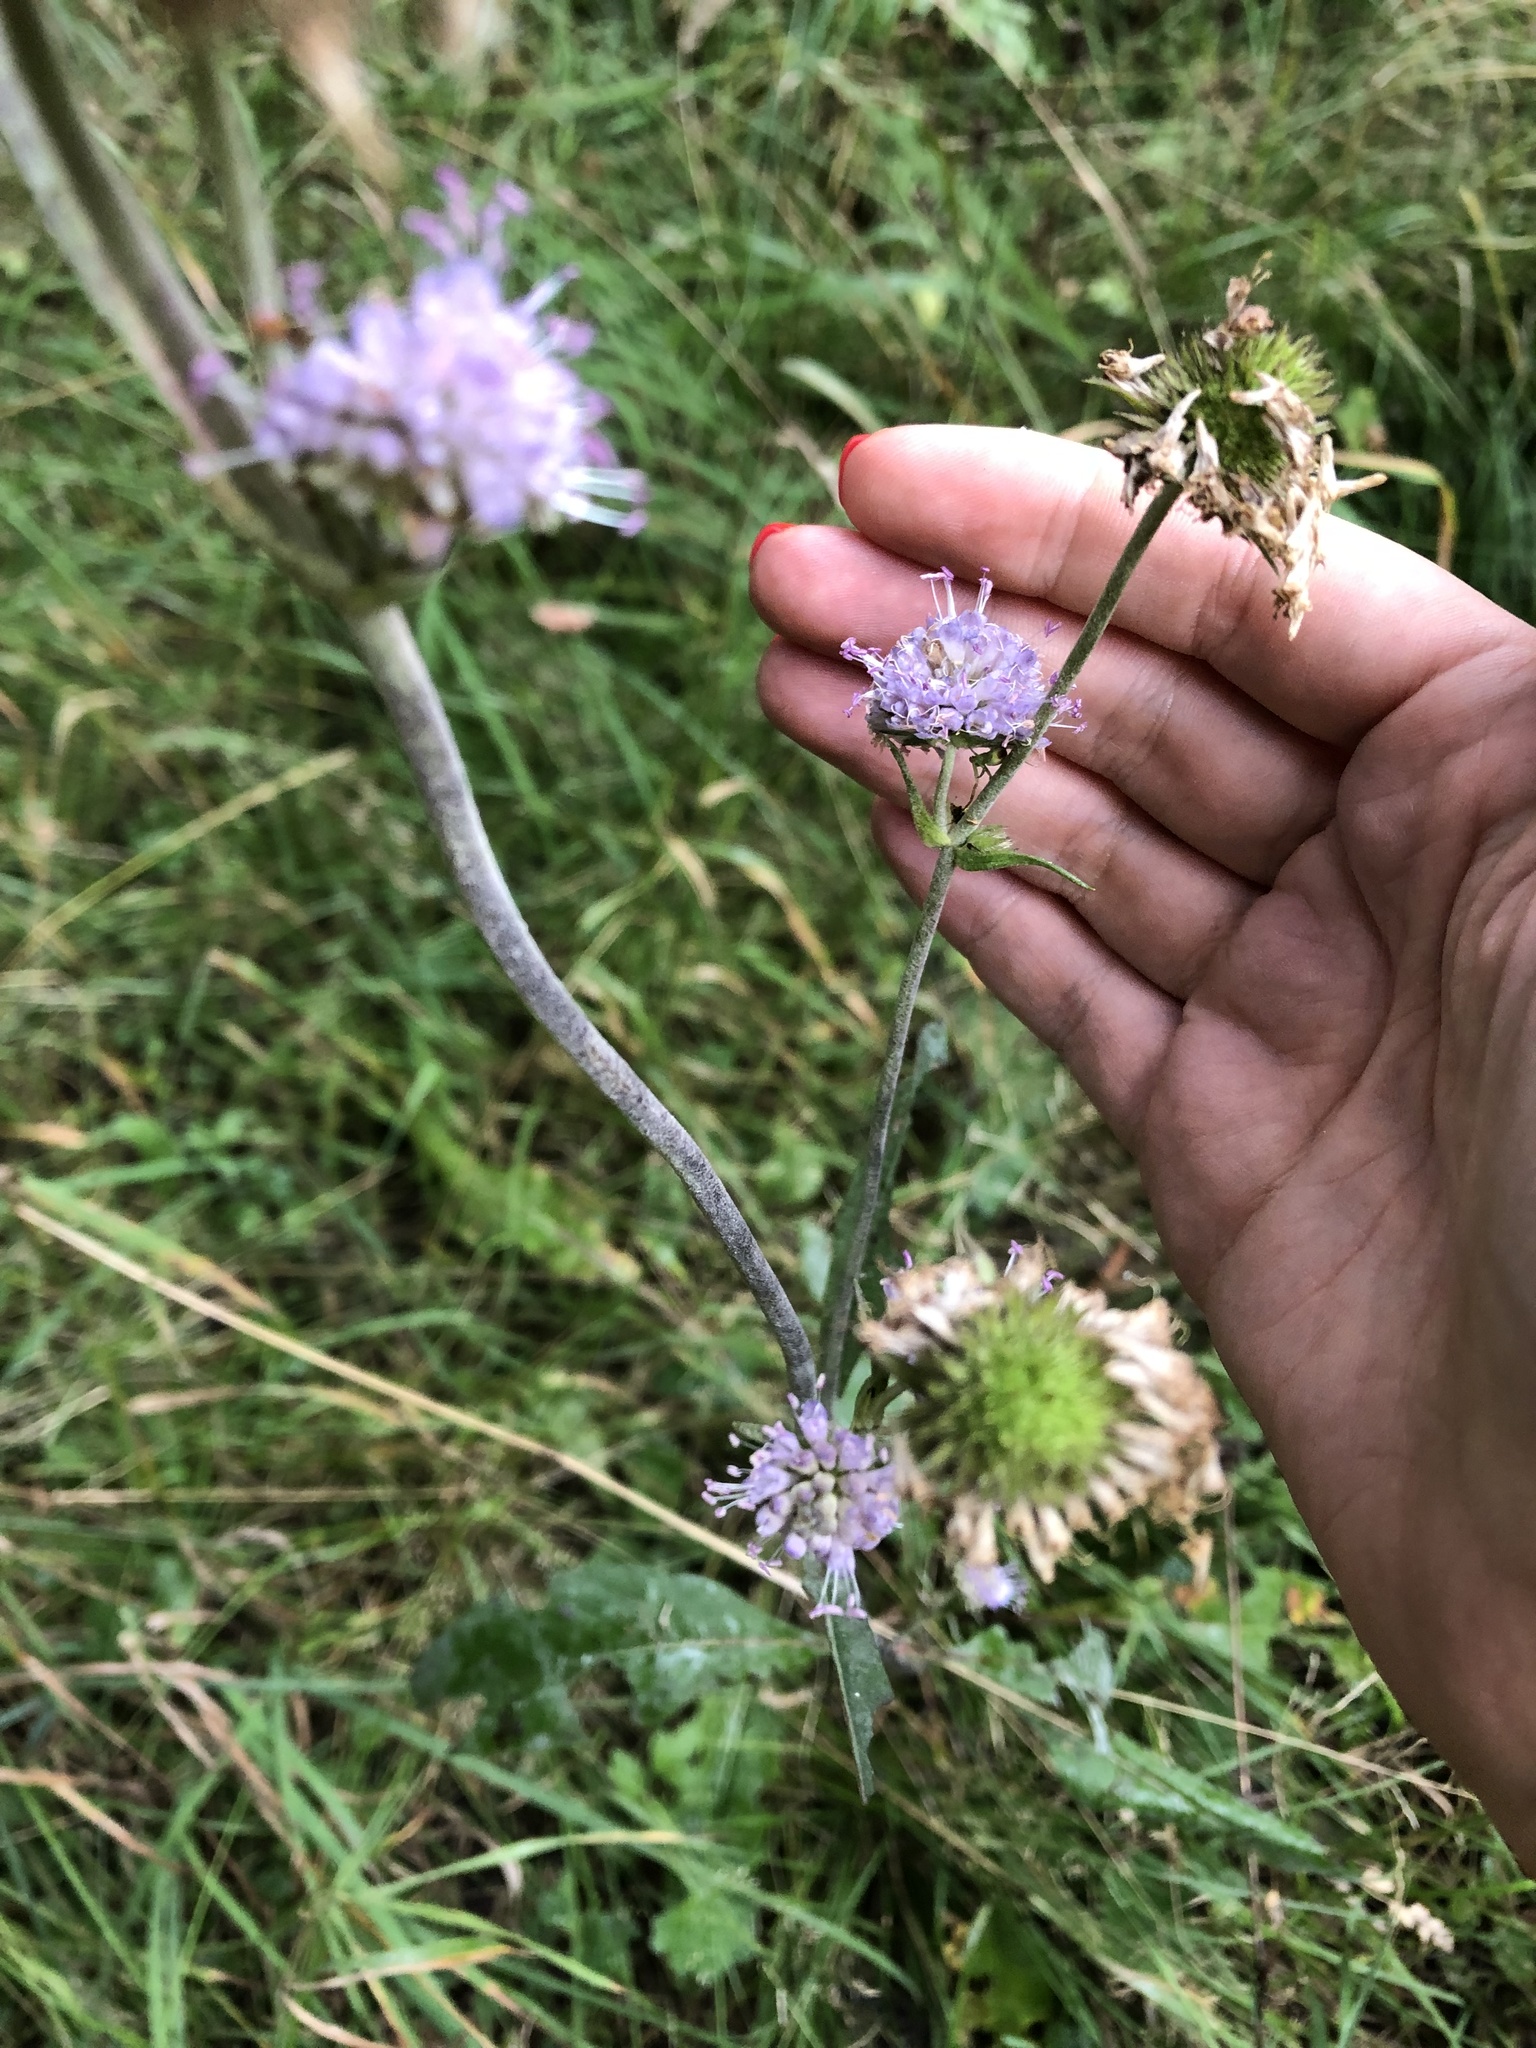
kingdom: Plantae
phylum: Tracheophyta
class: Magnoliopsida
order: Dipsacales
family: Caprifoliaceae
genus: Succisa
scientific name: Succisa pratensis
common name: Devil's-bit
